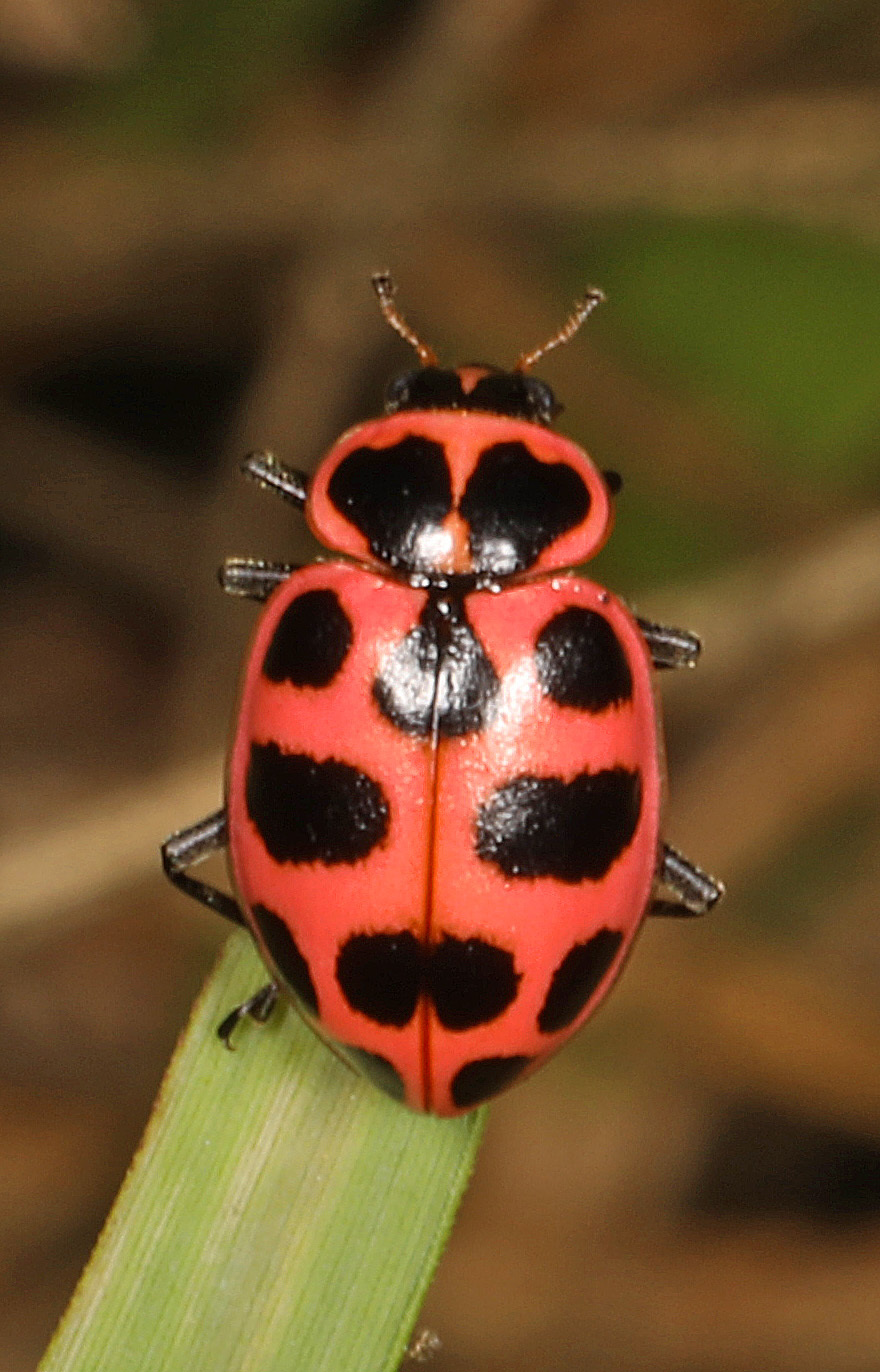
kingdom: Animalia
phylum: Arthropoda
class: Insecta
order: Coleoptera
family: Coccinellidae
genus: Coleomegilla
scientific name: Coleomegilla maculata
